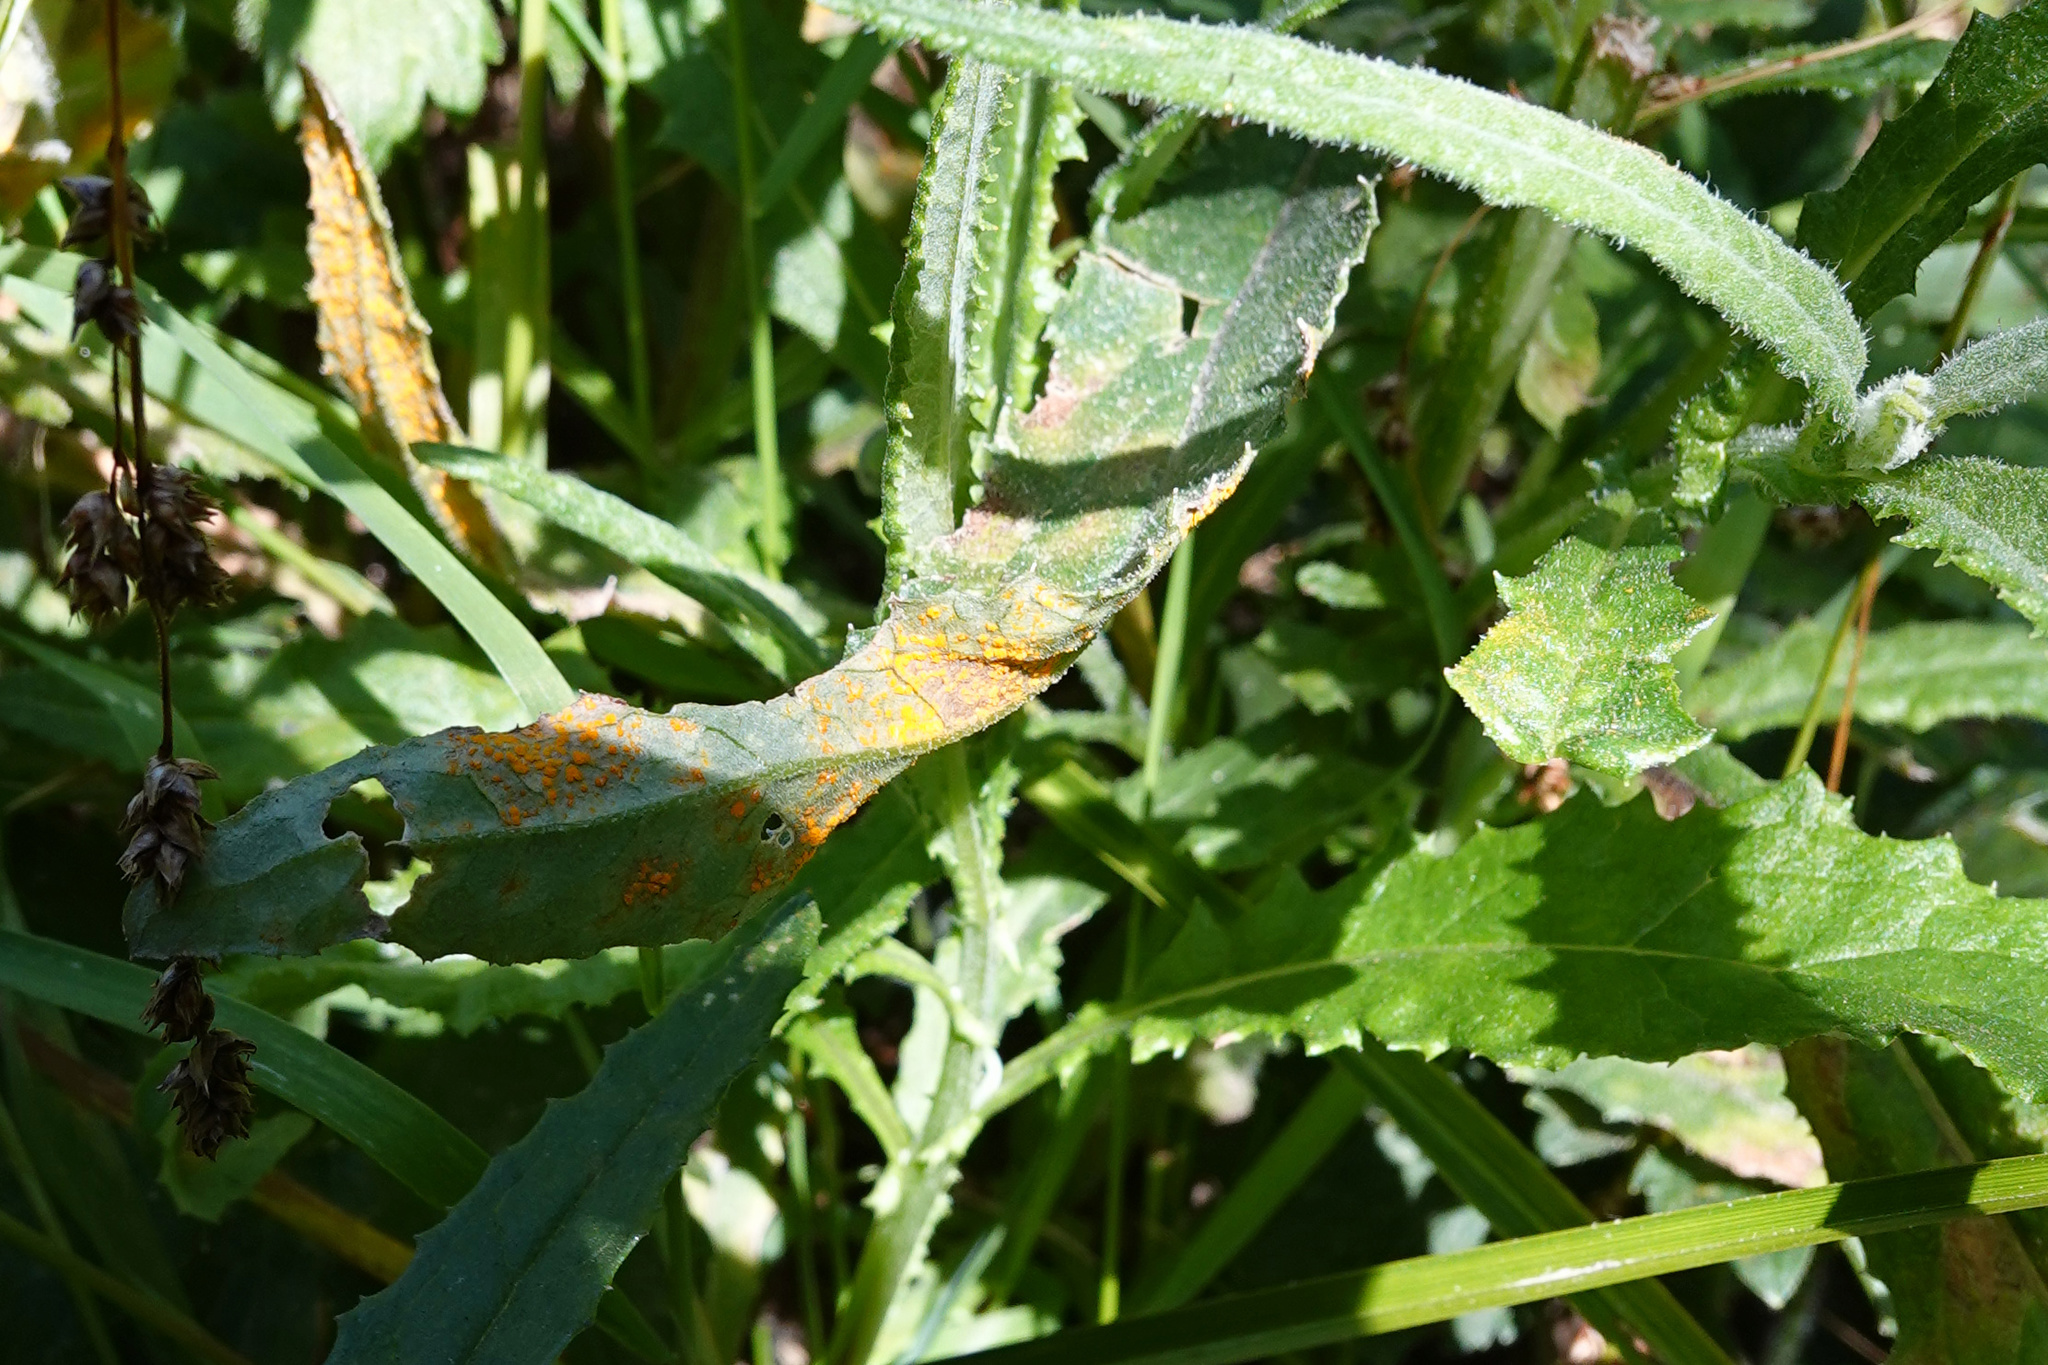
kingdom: Fungi
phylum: Basidiomycota
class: Pucciniomycetes
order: Pucciniales
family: Coleosporiaceae
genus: Coleosporium
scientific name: Coleosporium tussilaginis
